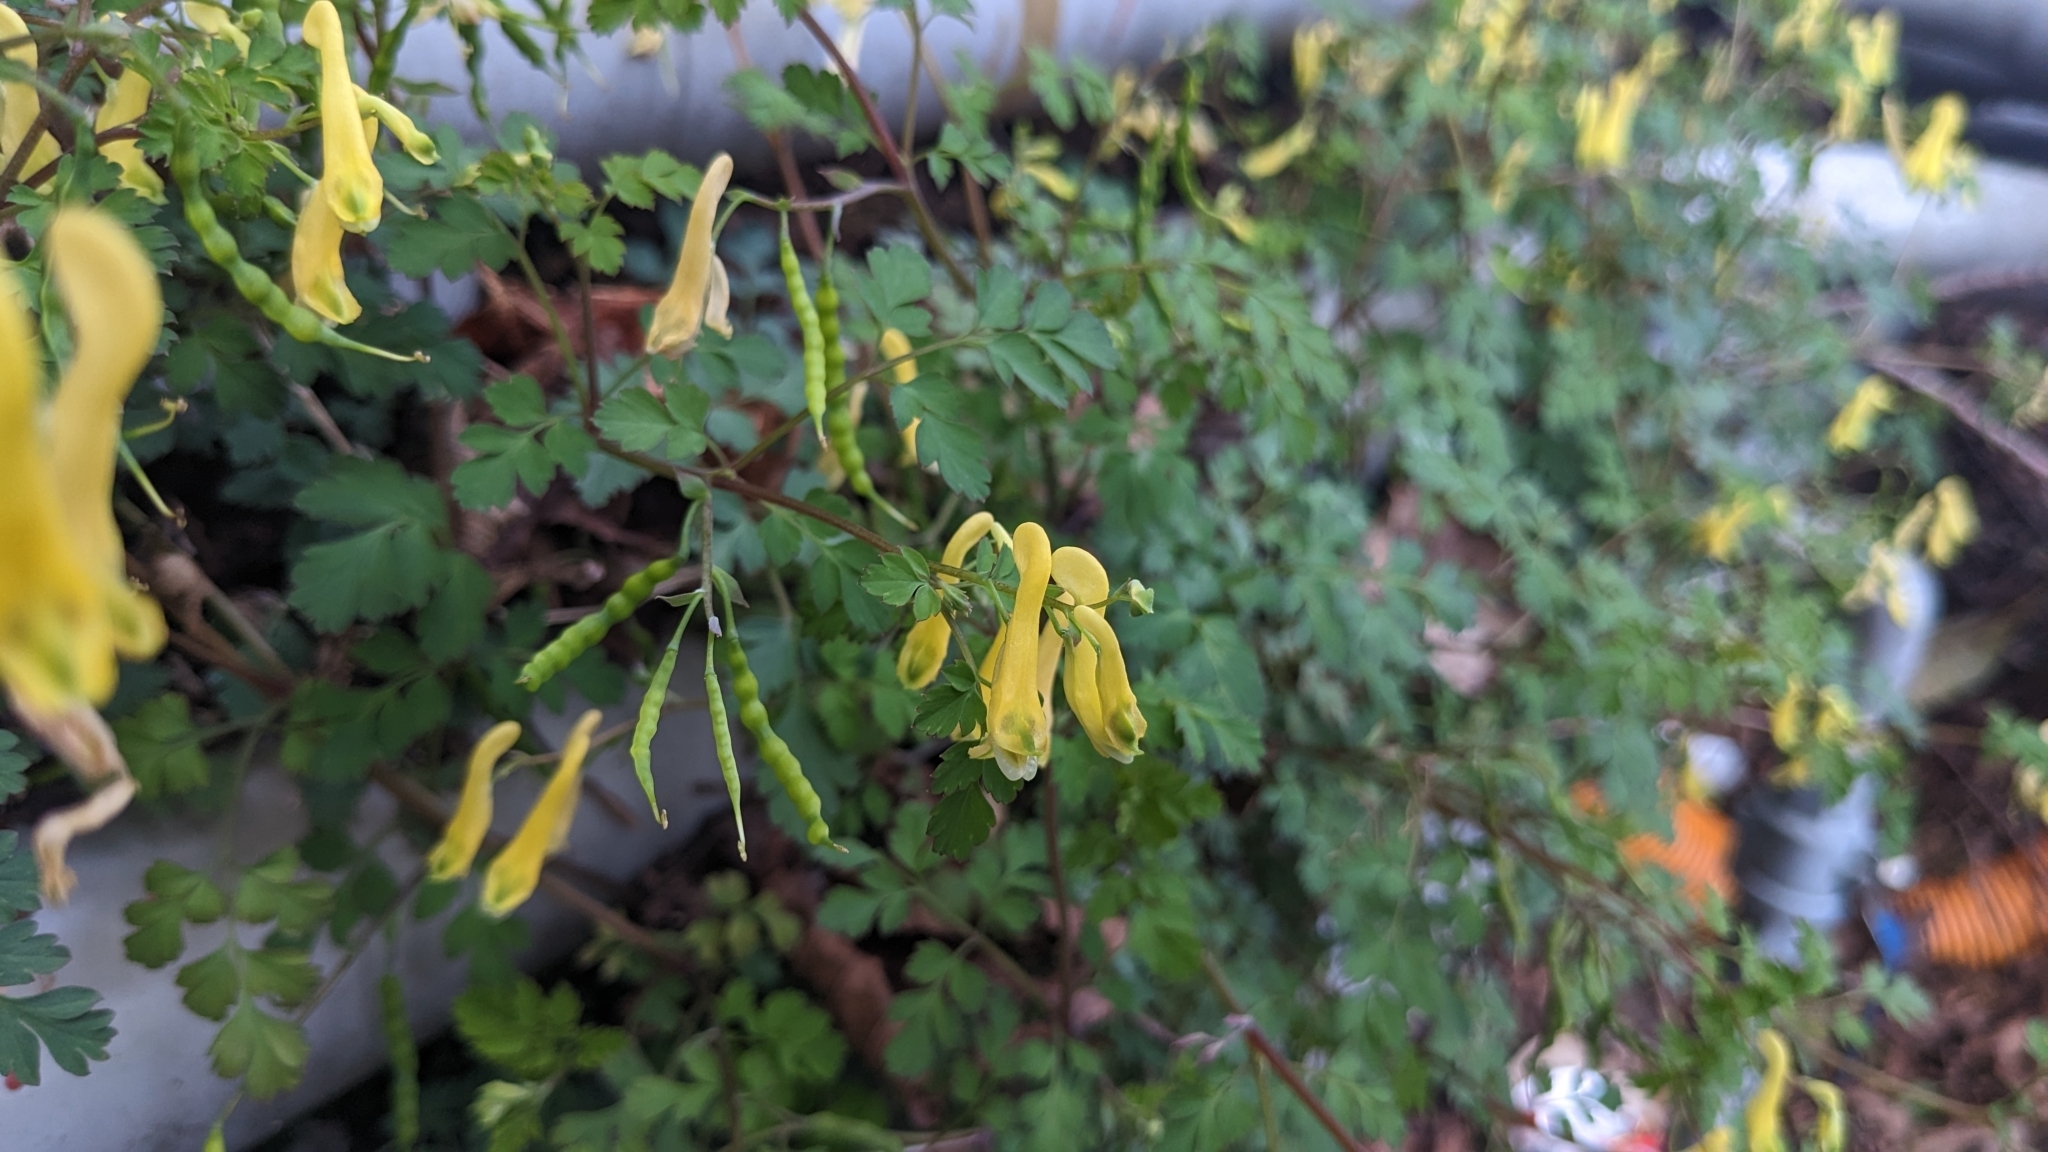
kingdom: Plantae
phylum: Tracheophyta
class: Magnoliopsida
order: Ranunculales
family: Papaveraceae
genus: Corydalis
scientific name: Corydalis pallida
